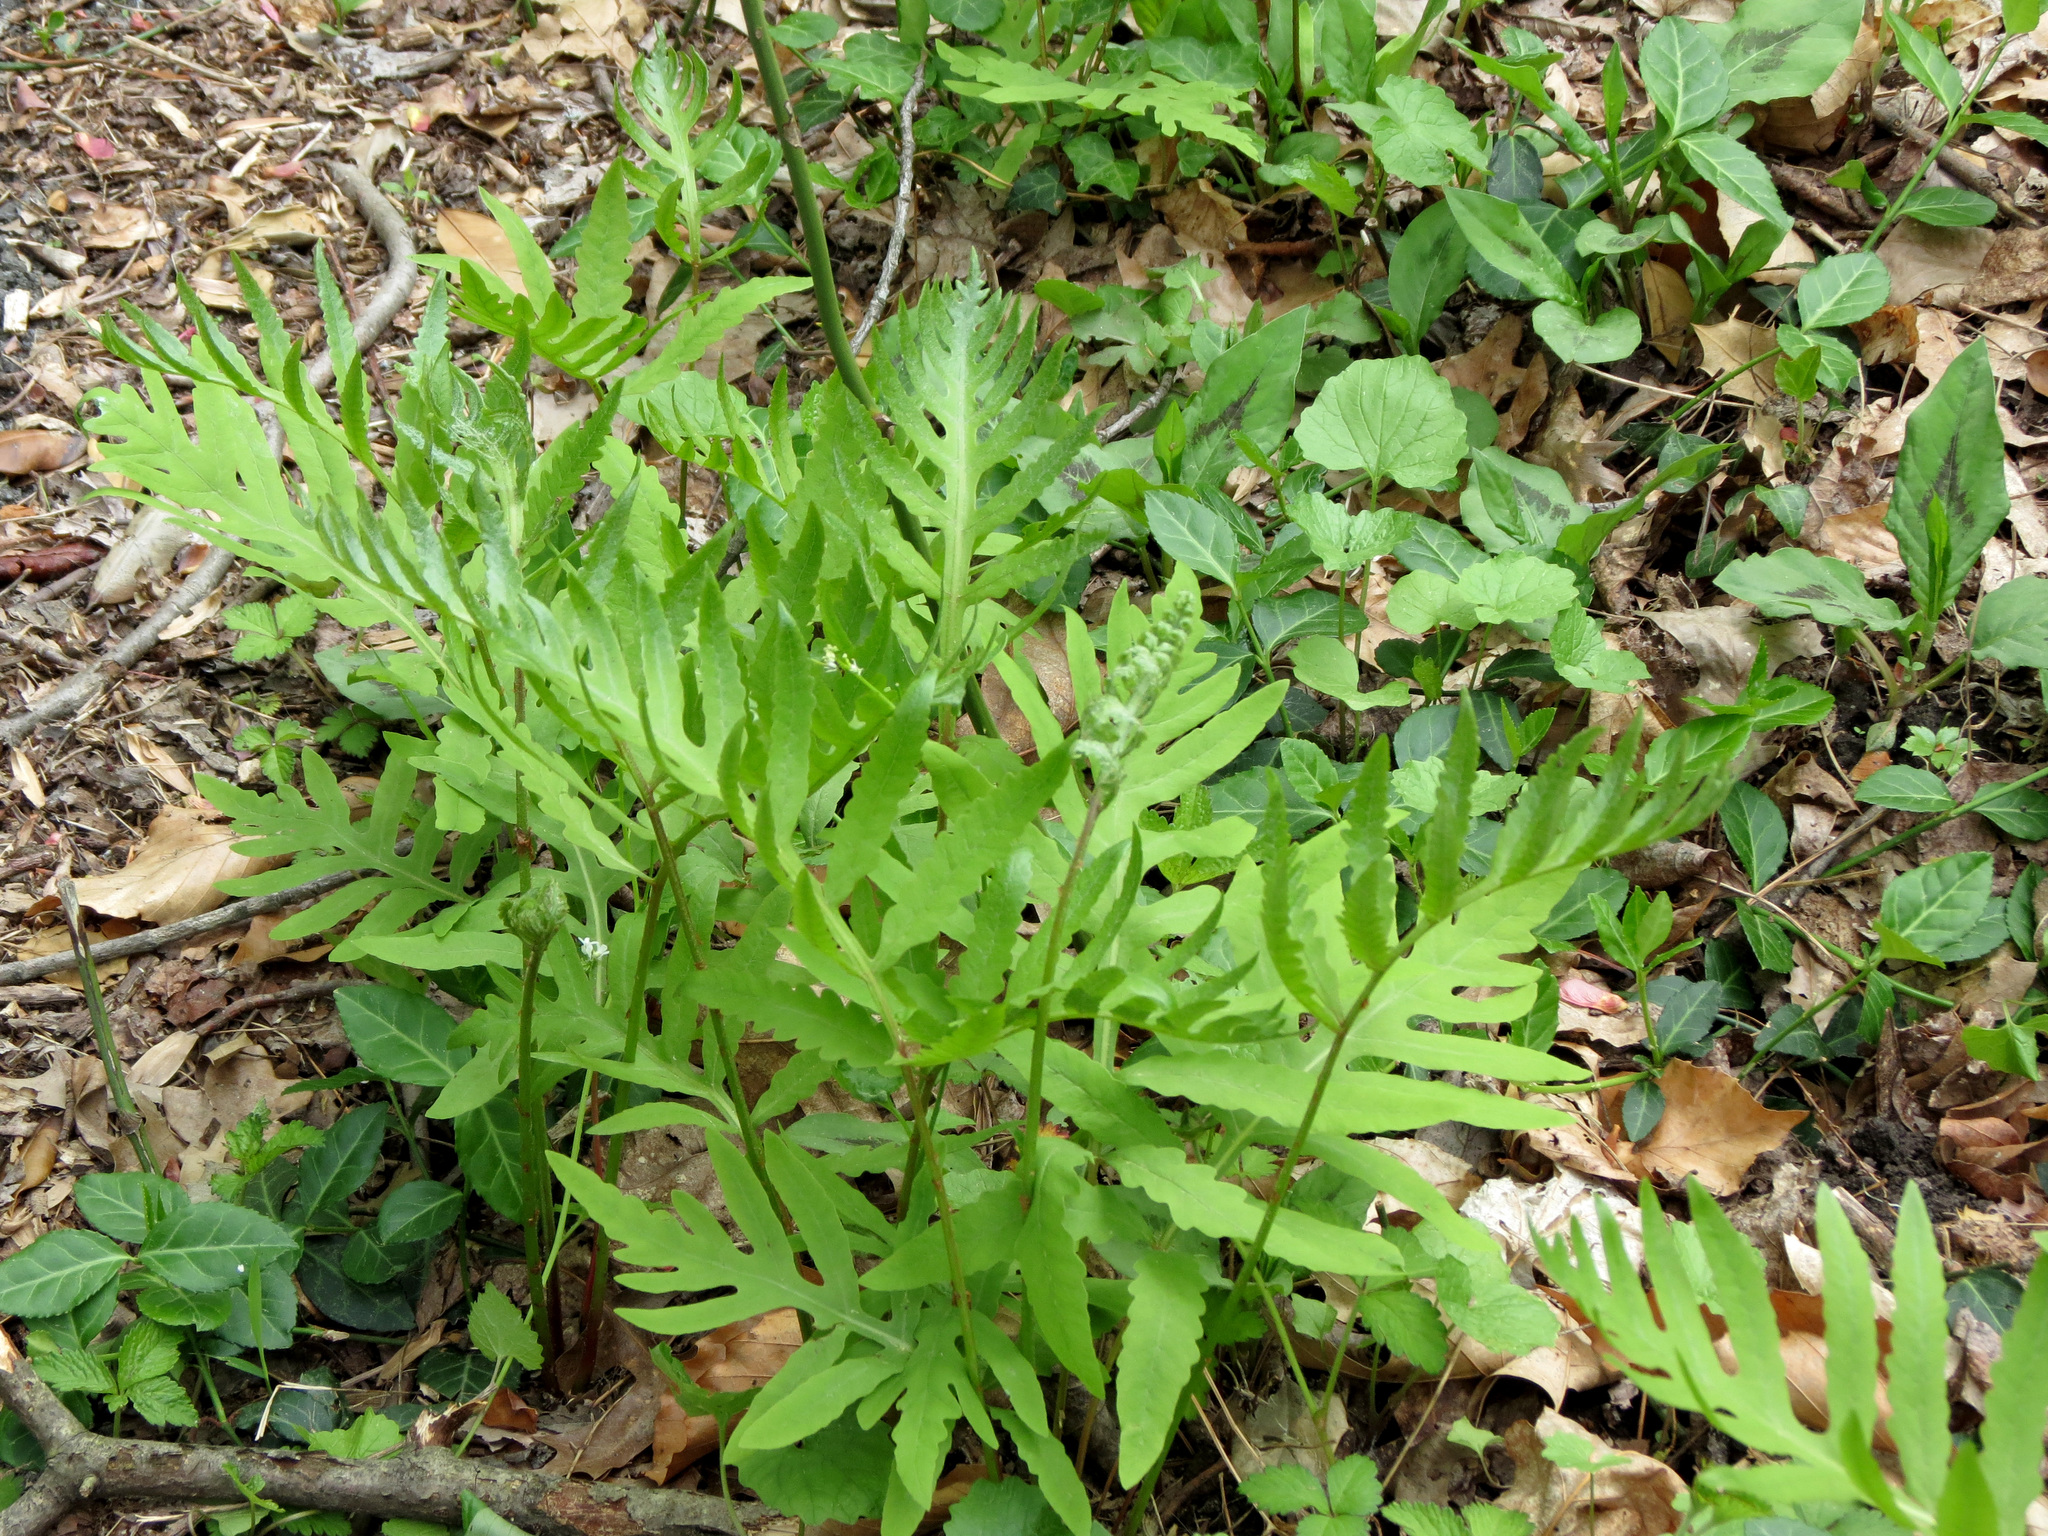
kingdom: Plantae
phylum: Tracheophyta
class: Polypodiopsida
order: Polypodiales
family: Onocleaceae
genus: Onoclea
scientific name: Onoclea sensibilis
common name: Sensitive fern
